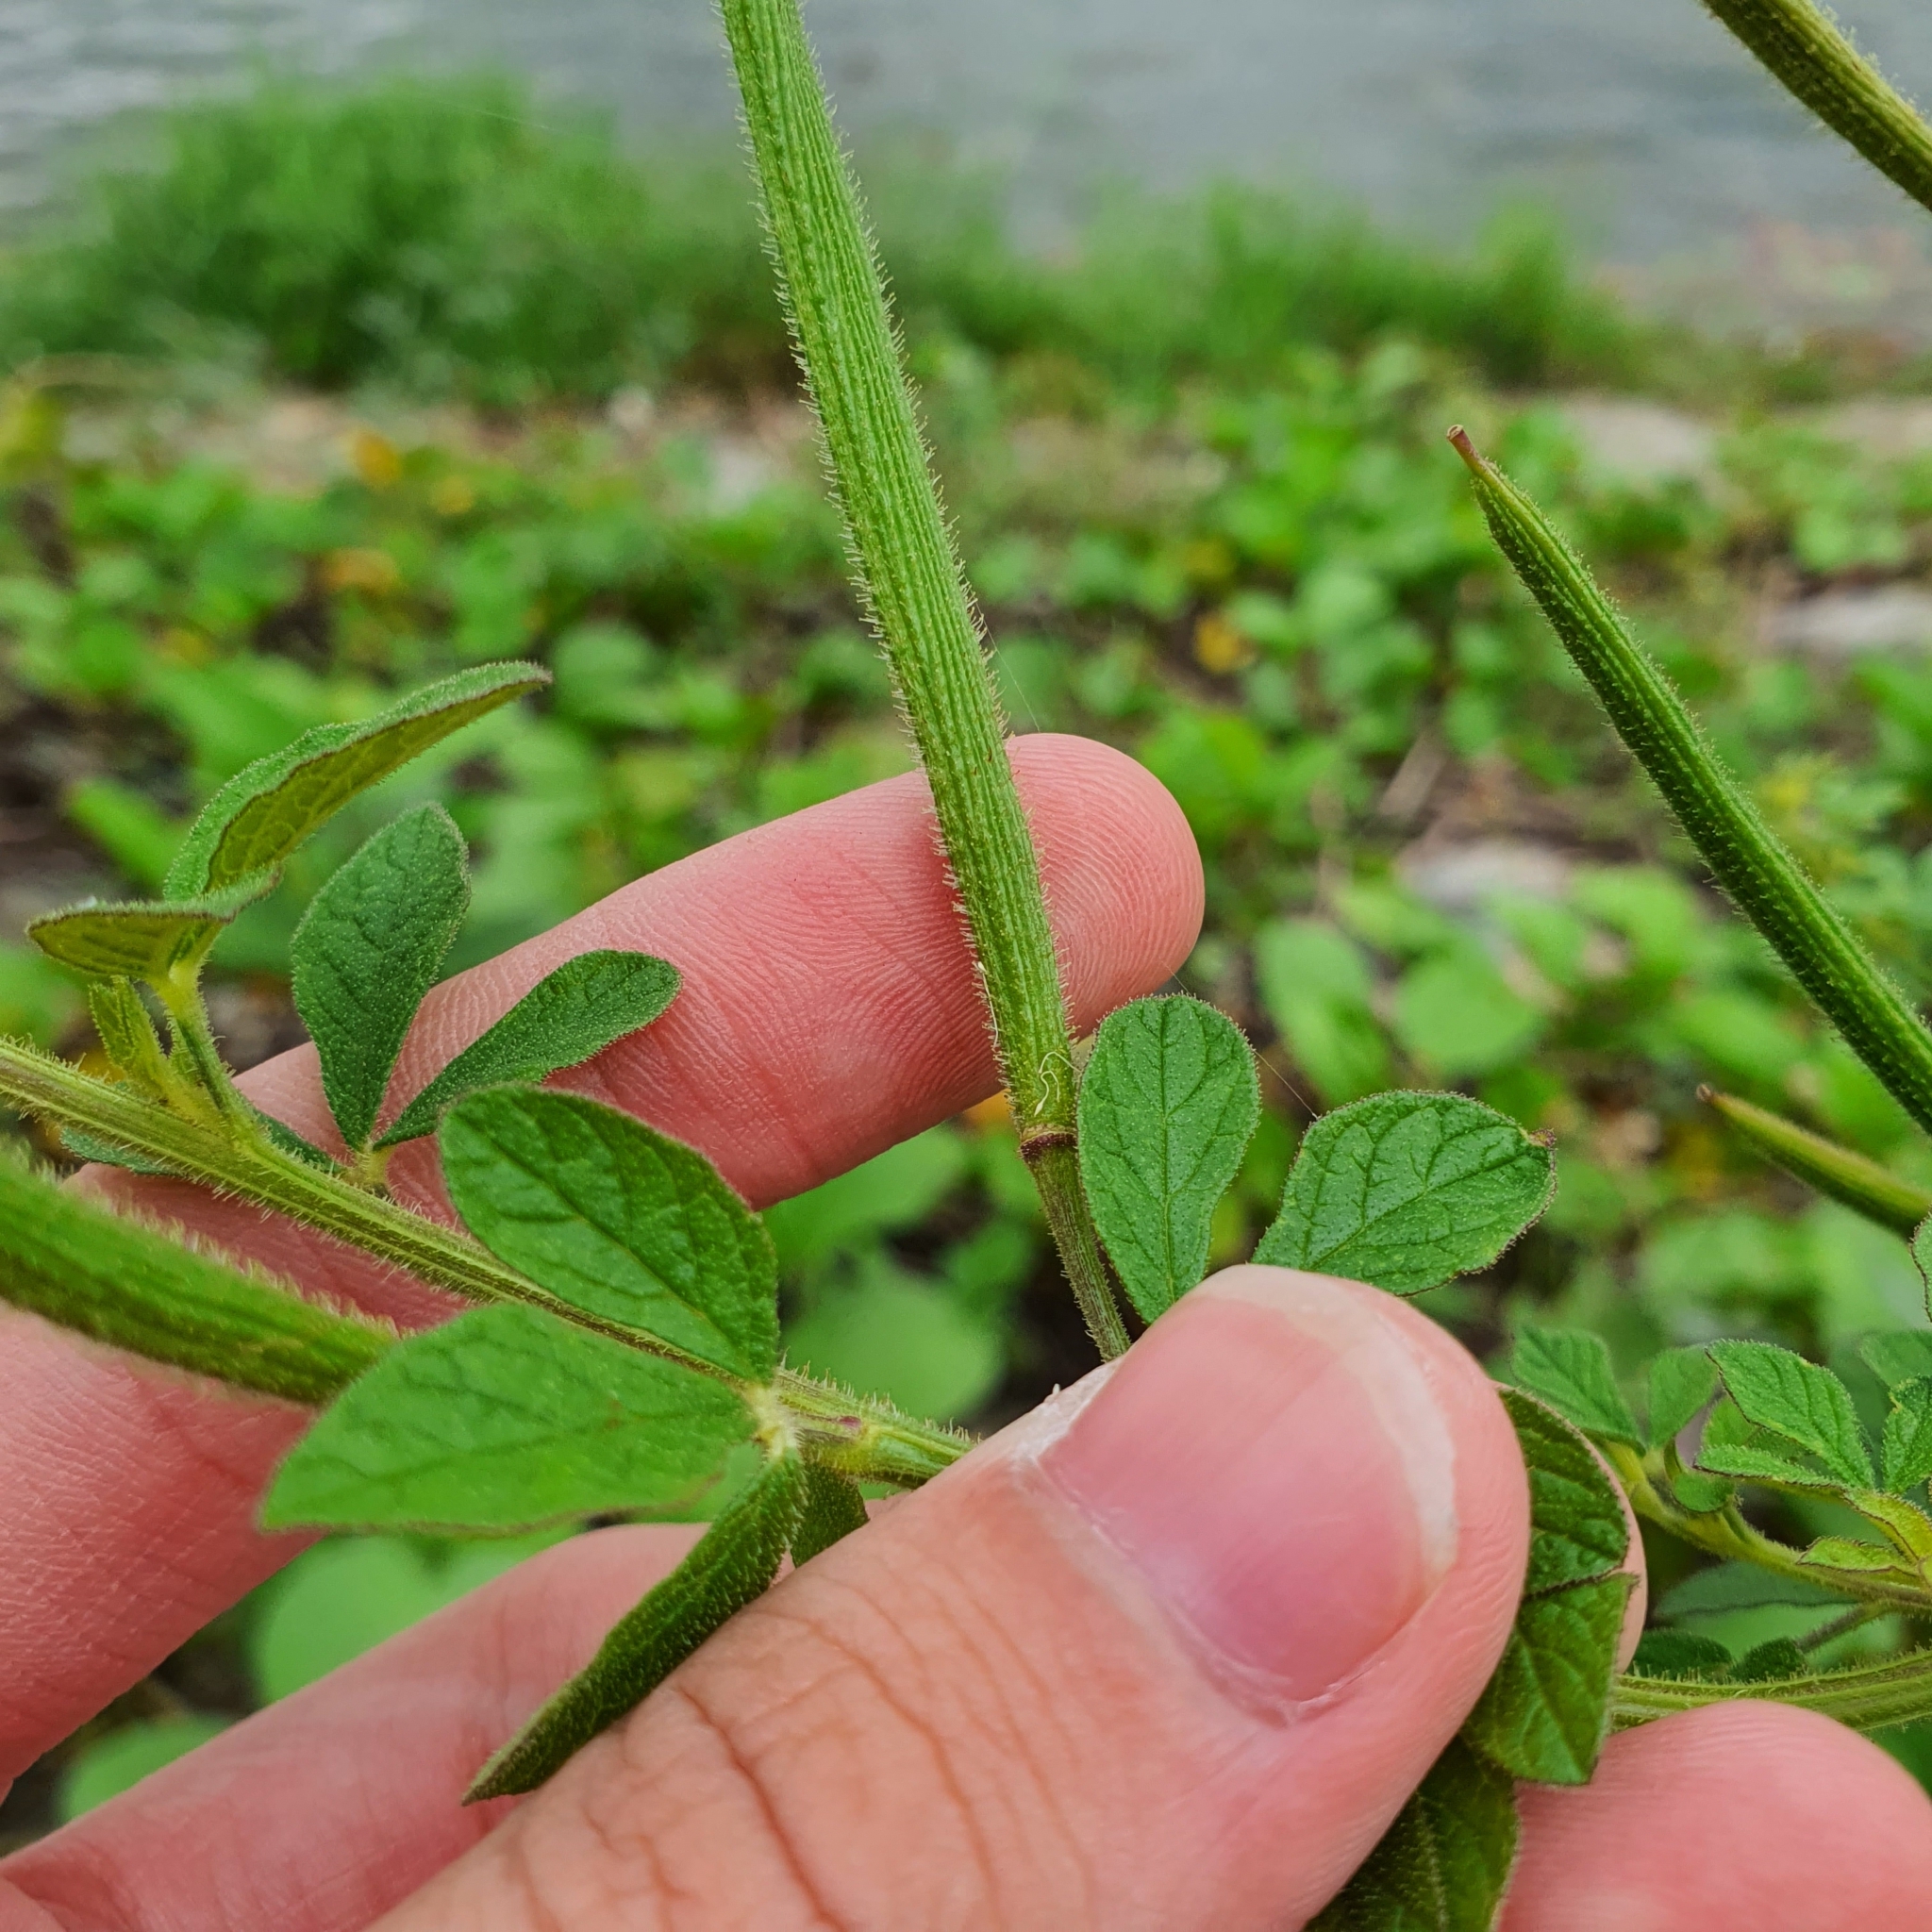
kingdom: Plantae
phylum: Tracheophyta
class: Magnoliopsida
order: Brassicales
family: Cleomaceae
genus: Arivela
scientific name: Arivela viscosa
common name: Asian spiderflower
